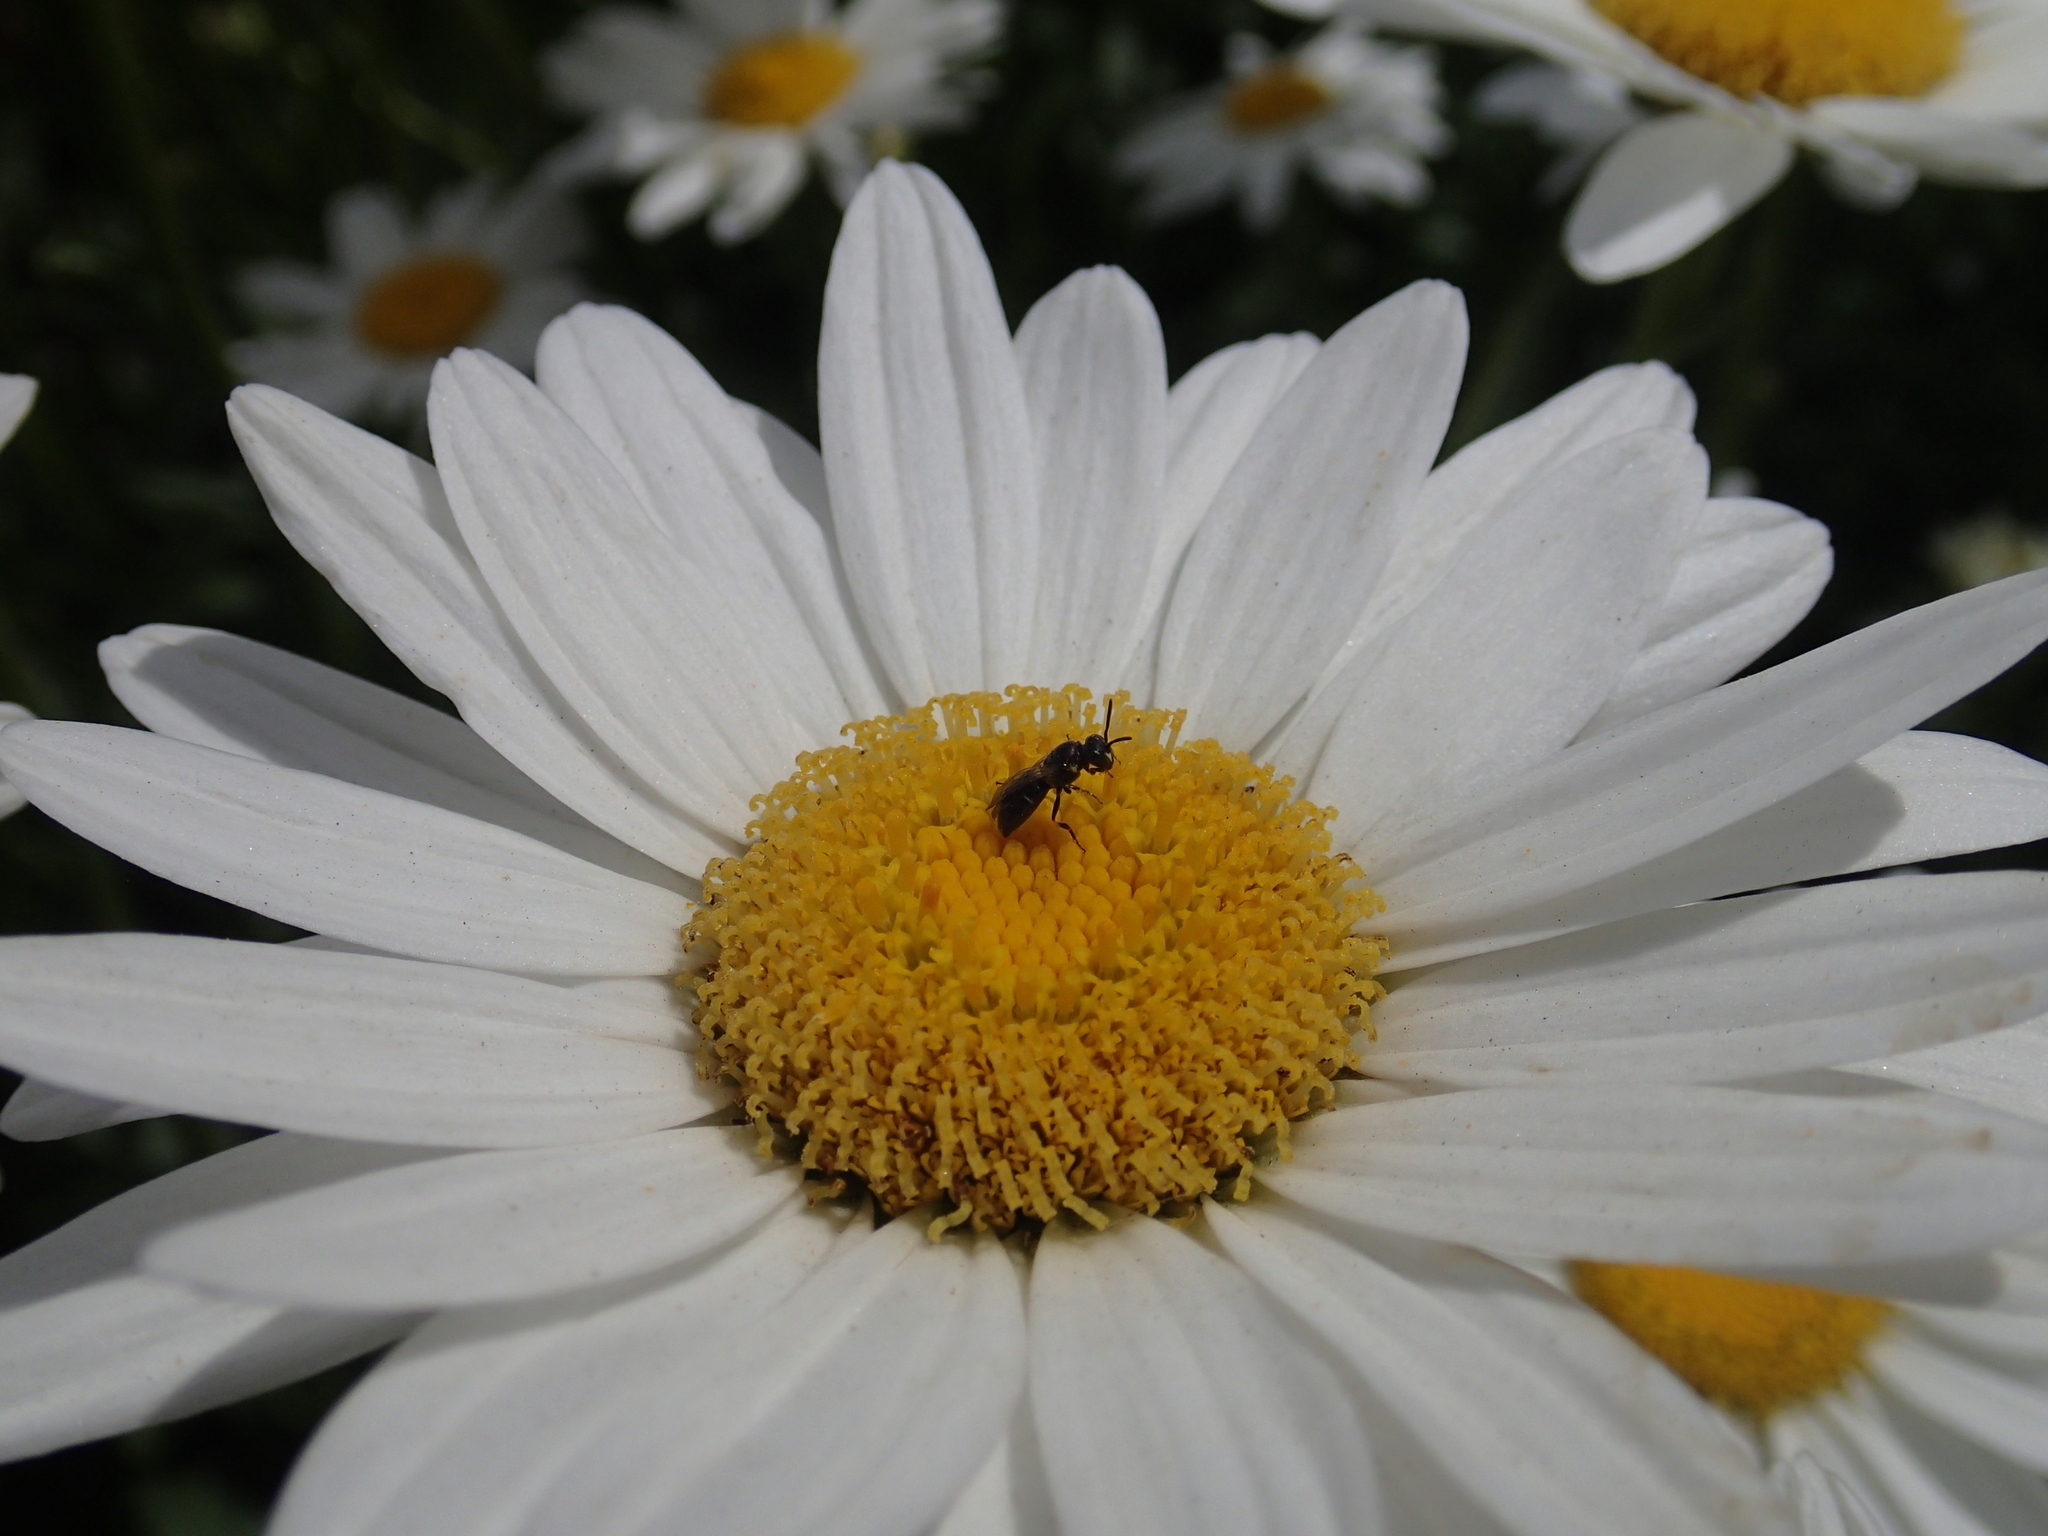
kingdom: Animalia
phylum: Arthropoda
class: Insecta
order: Hymenoptera
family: Colletidae
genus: Hylaeus
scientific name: Hylaeus
